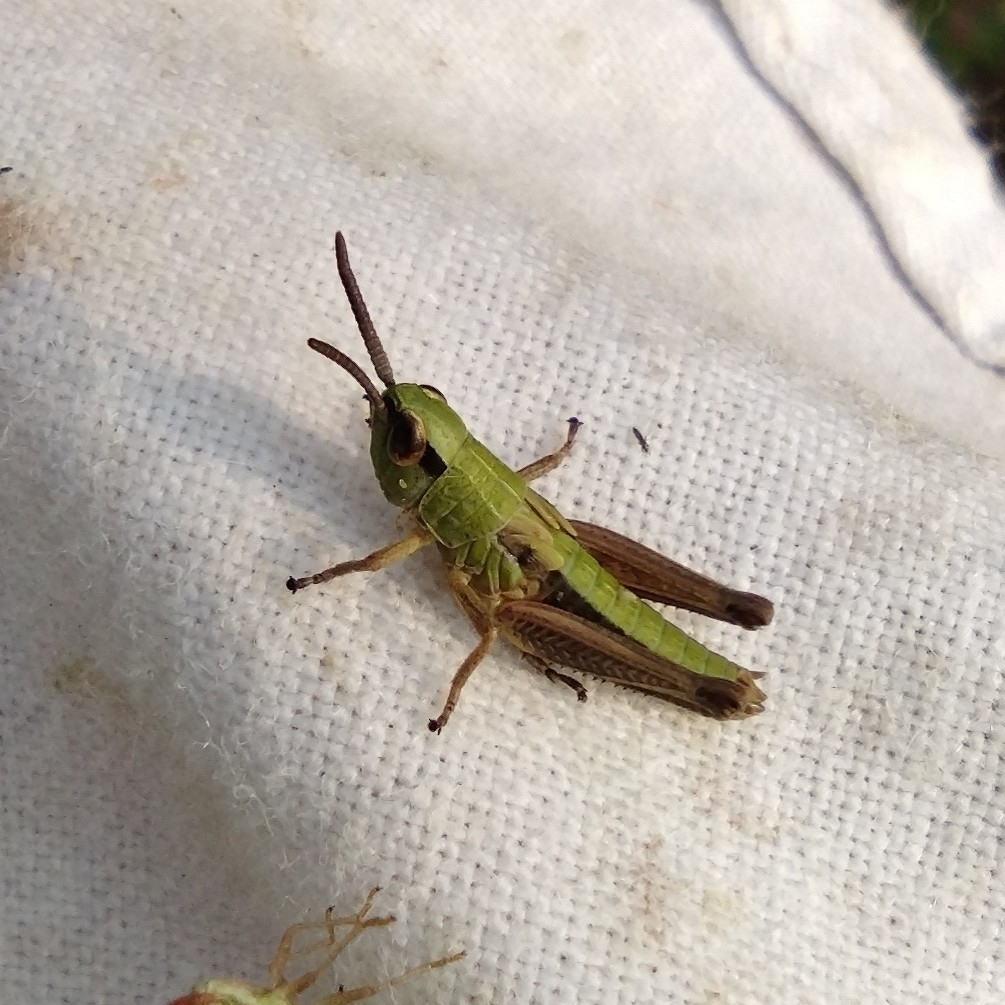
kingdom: Animalia
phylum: Arthropoda
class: Insecta
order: Orthoptera
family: Acrididae
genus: Pseudochorthippus
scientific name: Pseudochorthippus parallelus
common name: Meadow grasshopper
